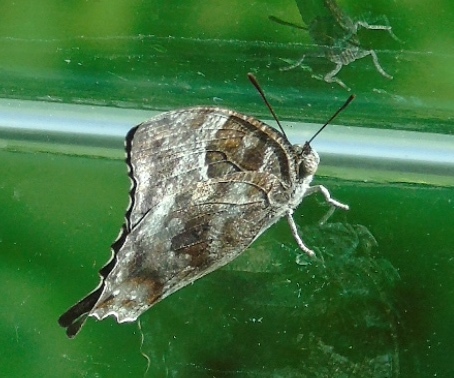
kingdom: Animalia
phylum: Arthropoda
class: Insecta
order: Lepidoptera
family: Nymphalidae
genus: Anaea
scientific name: Anaea pithyusa
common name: Pale-spotted leafwing
